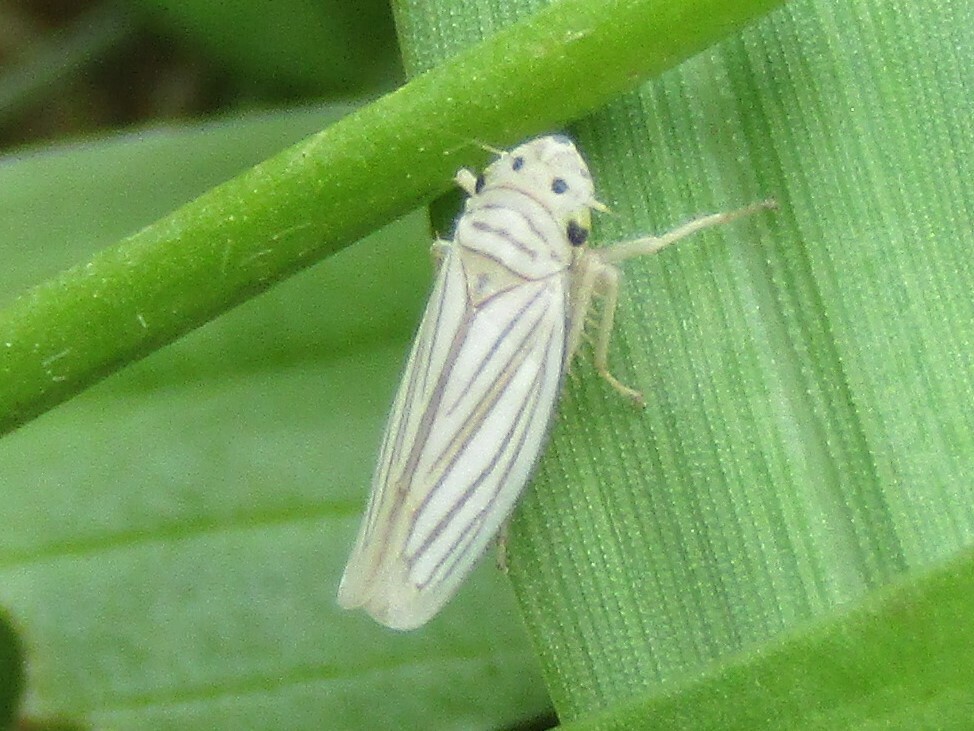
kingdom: Animalia
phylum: Arthropoda
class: Insecta
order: Hemiptera
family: Cicadellidae
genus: Provancherana
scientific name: Provancherana tripunctata
